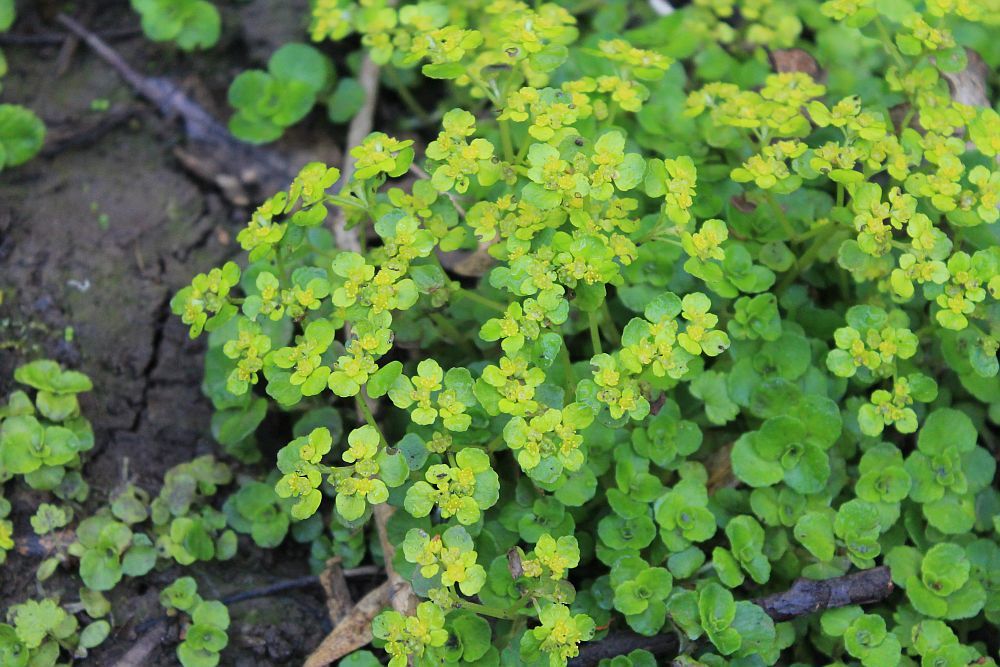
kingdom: Plantae
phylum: Tracheophyta
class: Magnoliopsida
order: Saxifragales
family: Saxifragaceae
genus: Chrysosplenium
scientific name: Chrysosplenium oppositifolium
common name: Opposite-leaved golden-saxifrage
